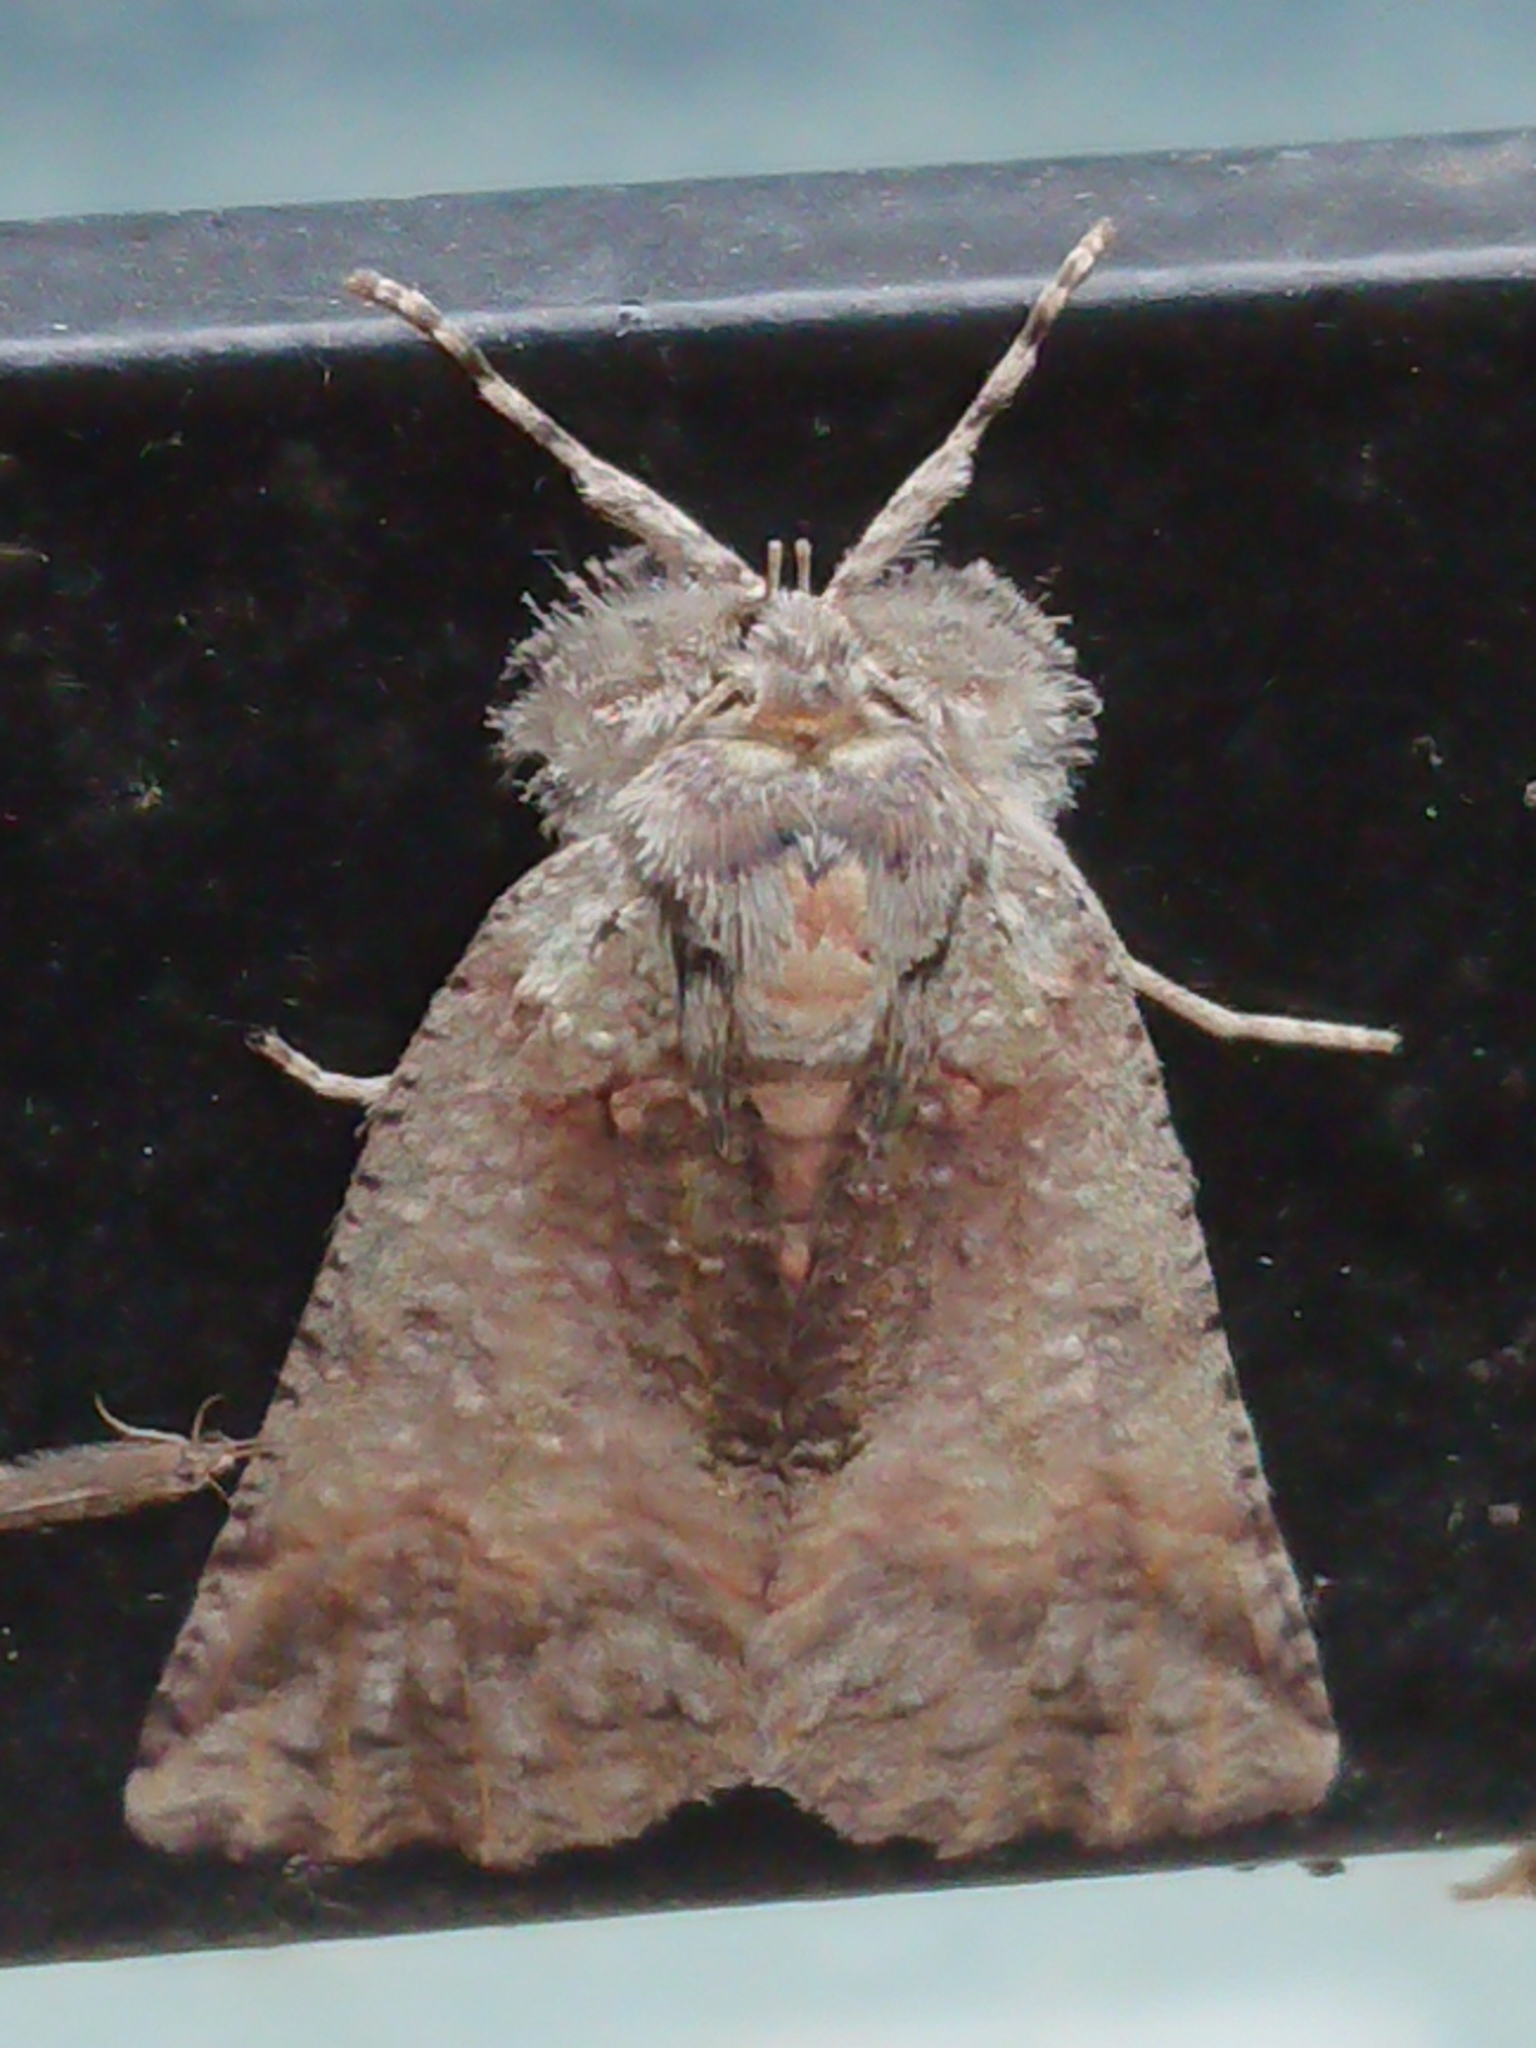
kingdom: Animalia
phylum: Arthropoda
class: Insecta
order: Lepidoptera
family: Geometridae
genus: Declana
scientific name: Declana floccosa
